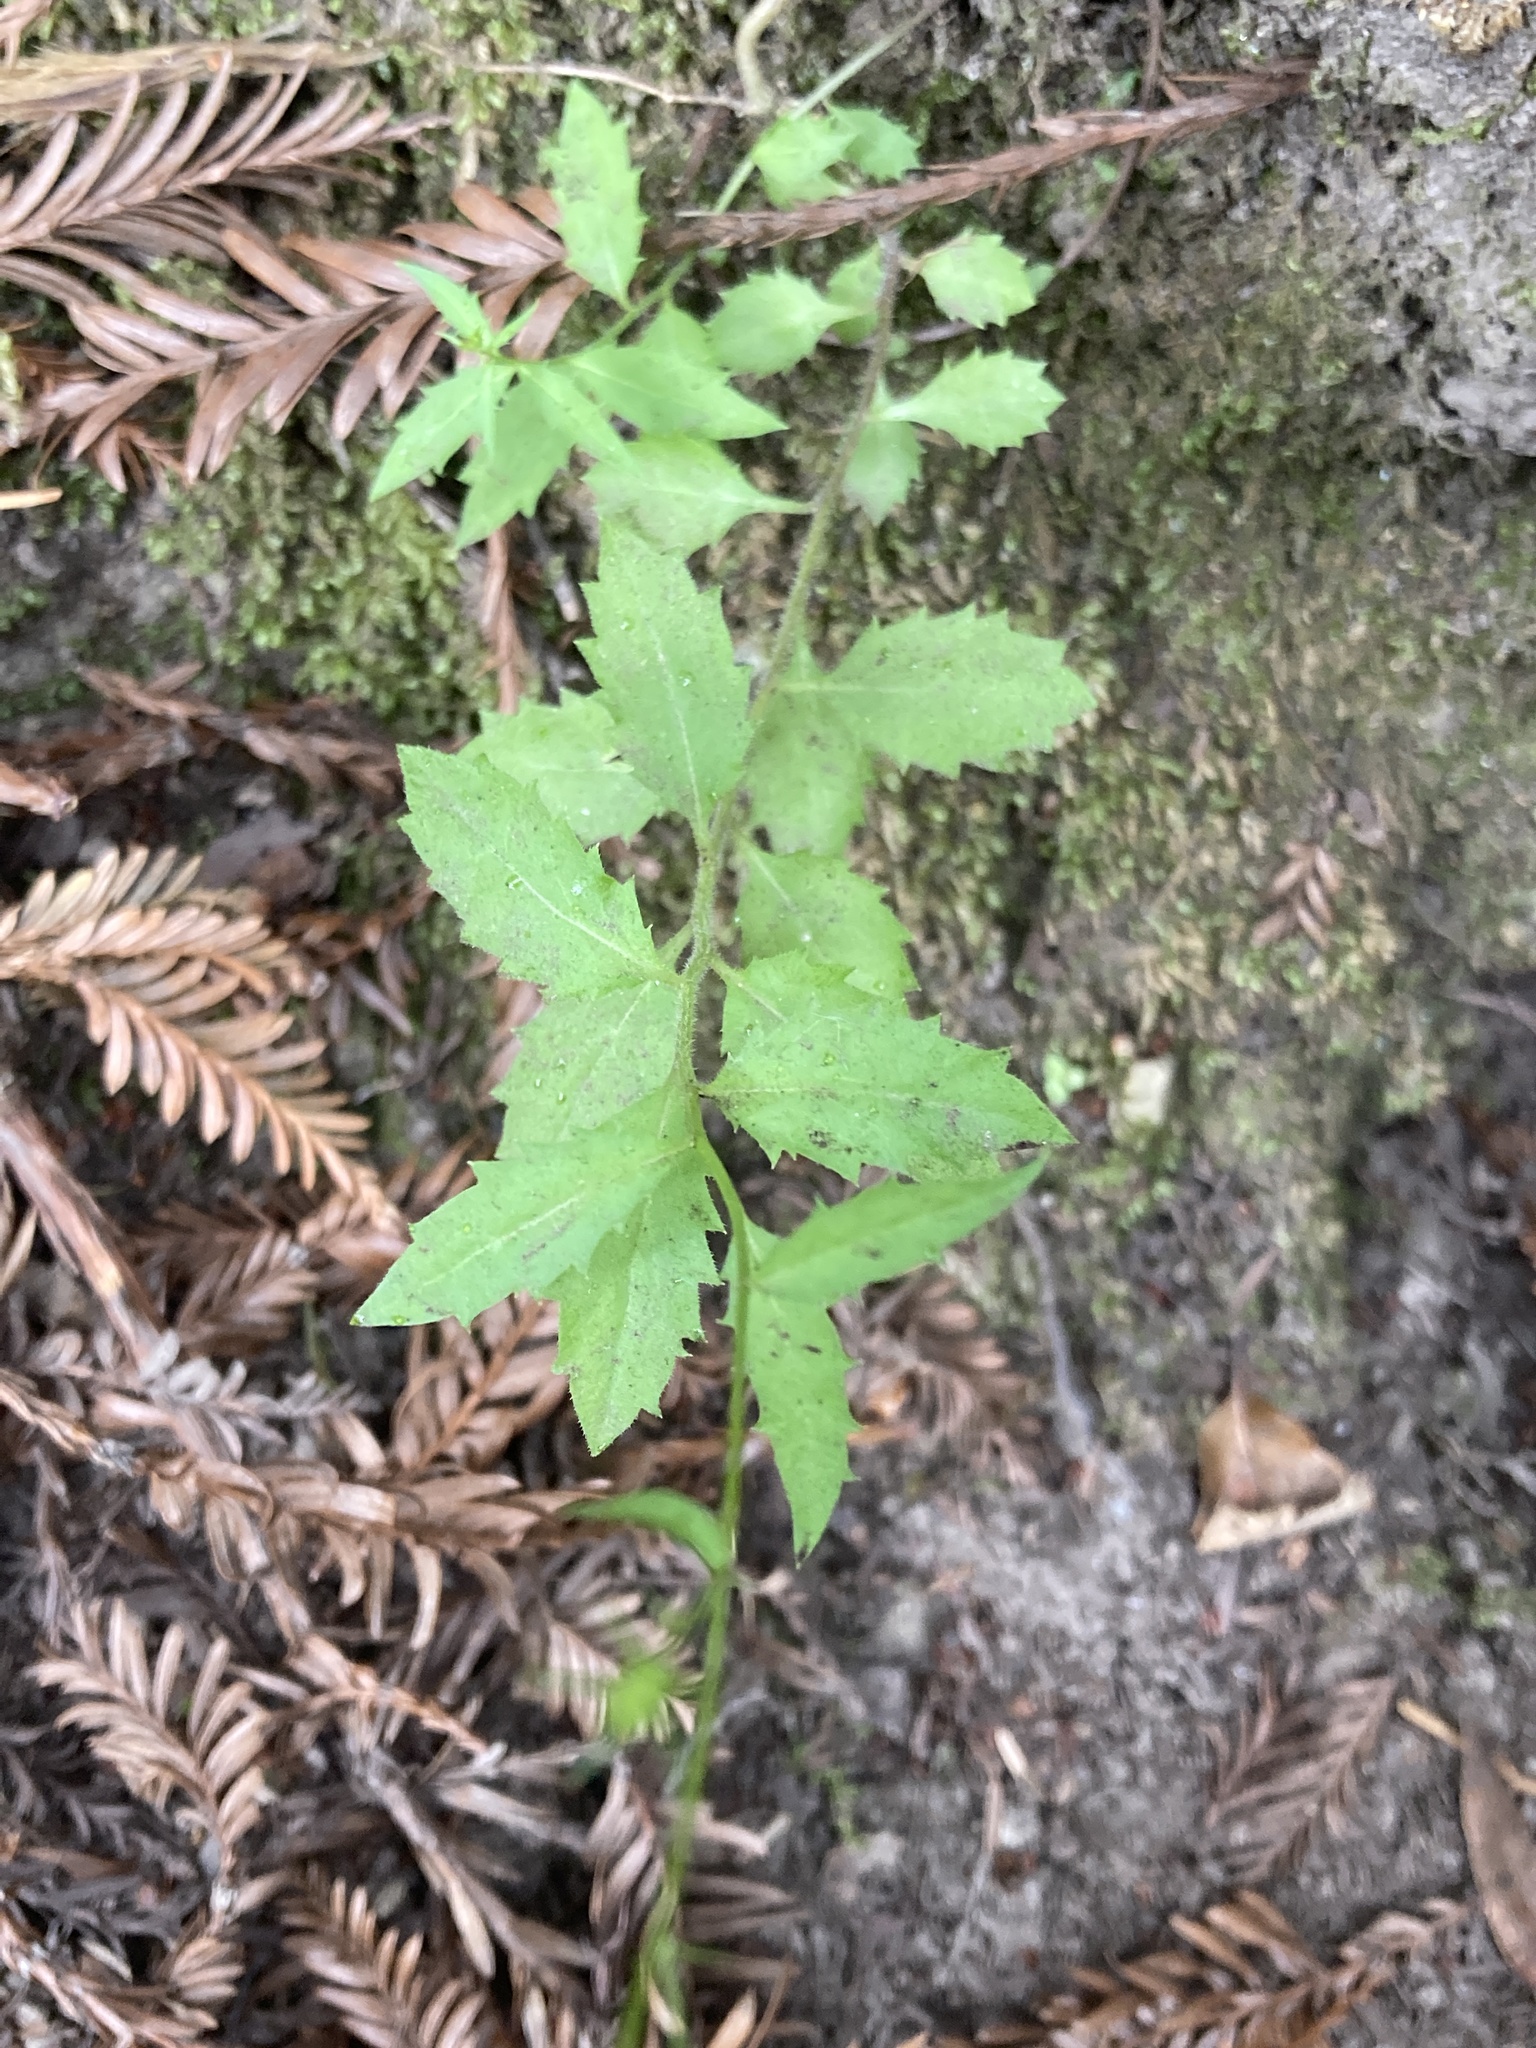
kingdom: Plantae
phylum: Tracheophyta
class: Magnoliopsida
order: Asterales
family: Campanulaceae
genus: Smithiastrum
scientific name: Smithiastrum prenanthoides
